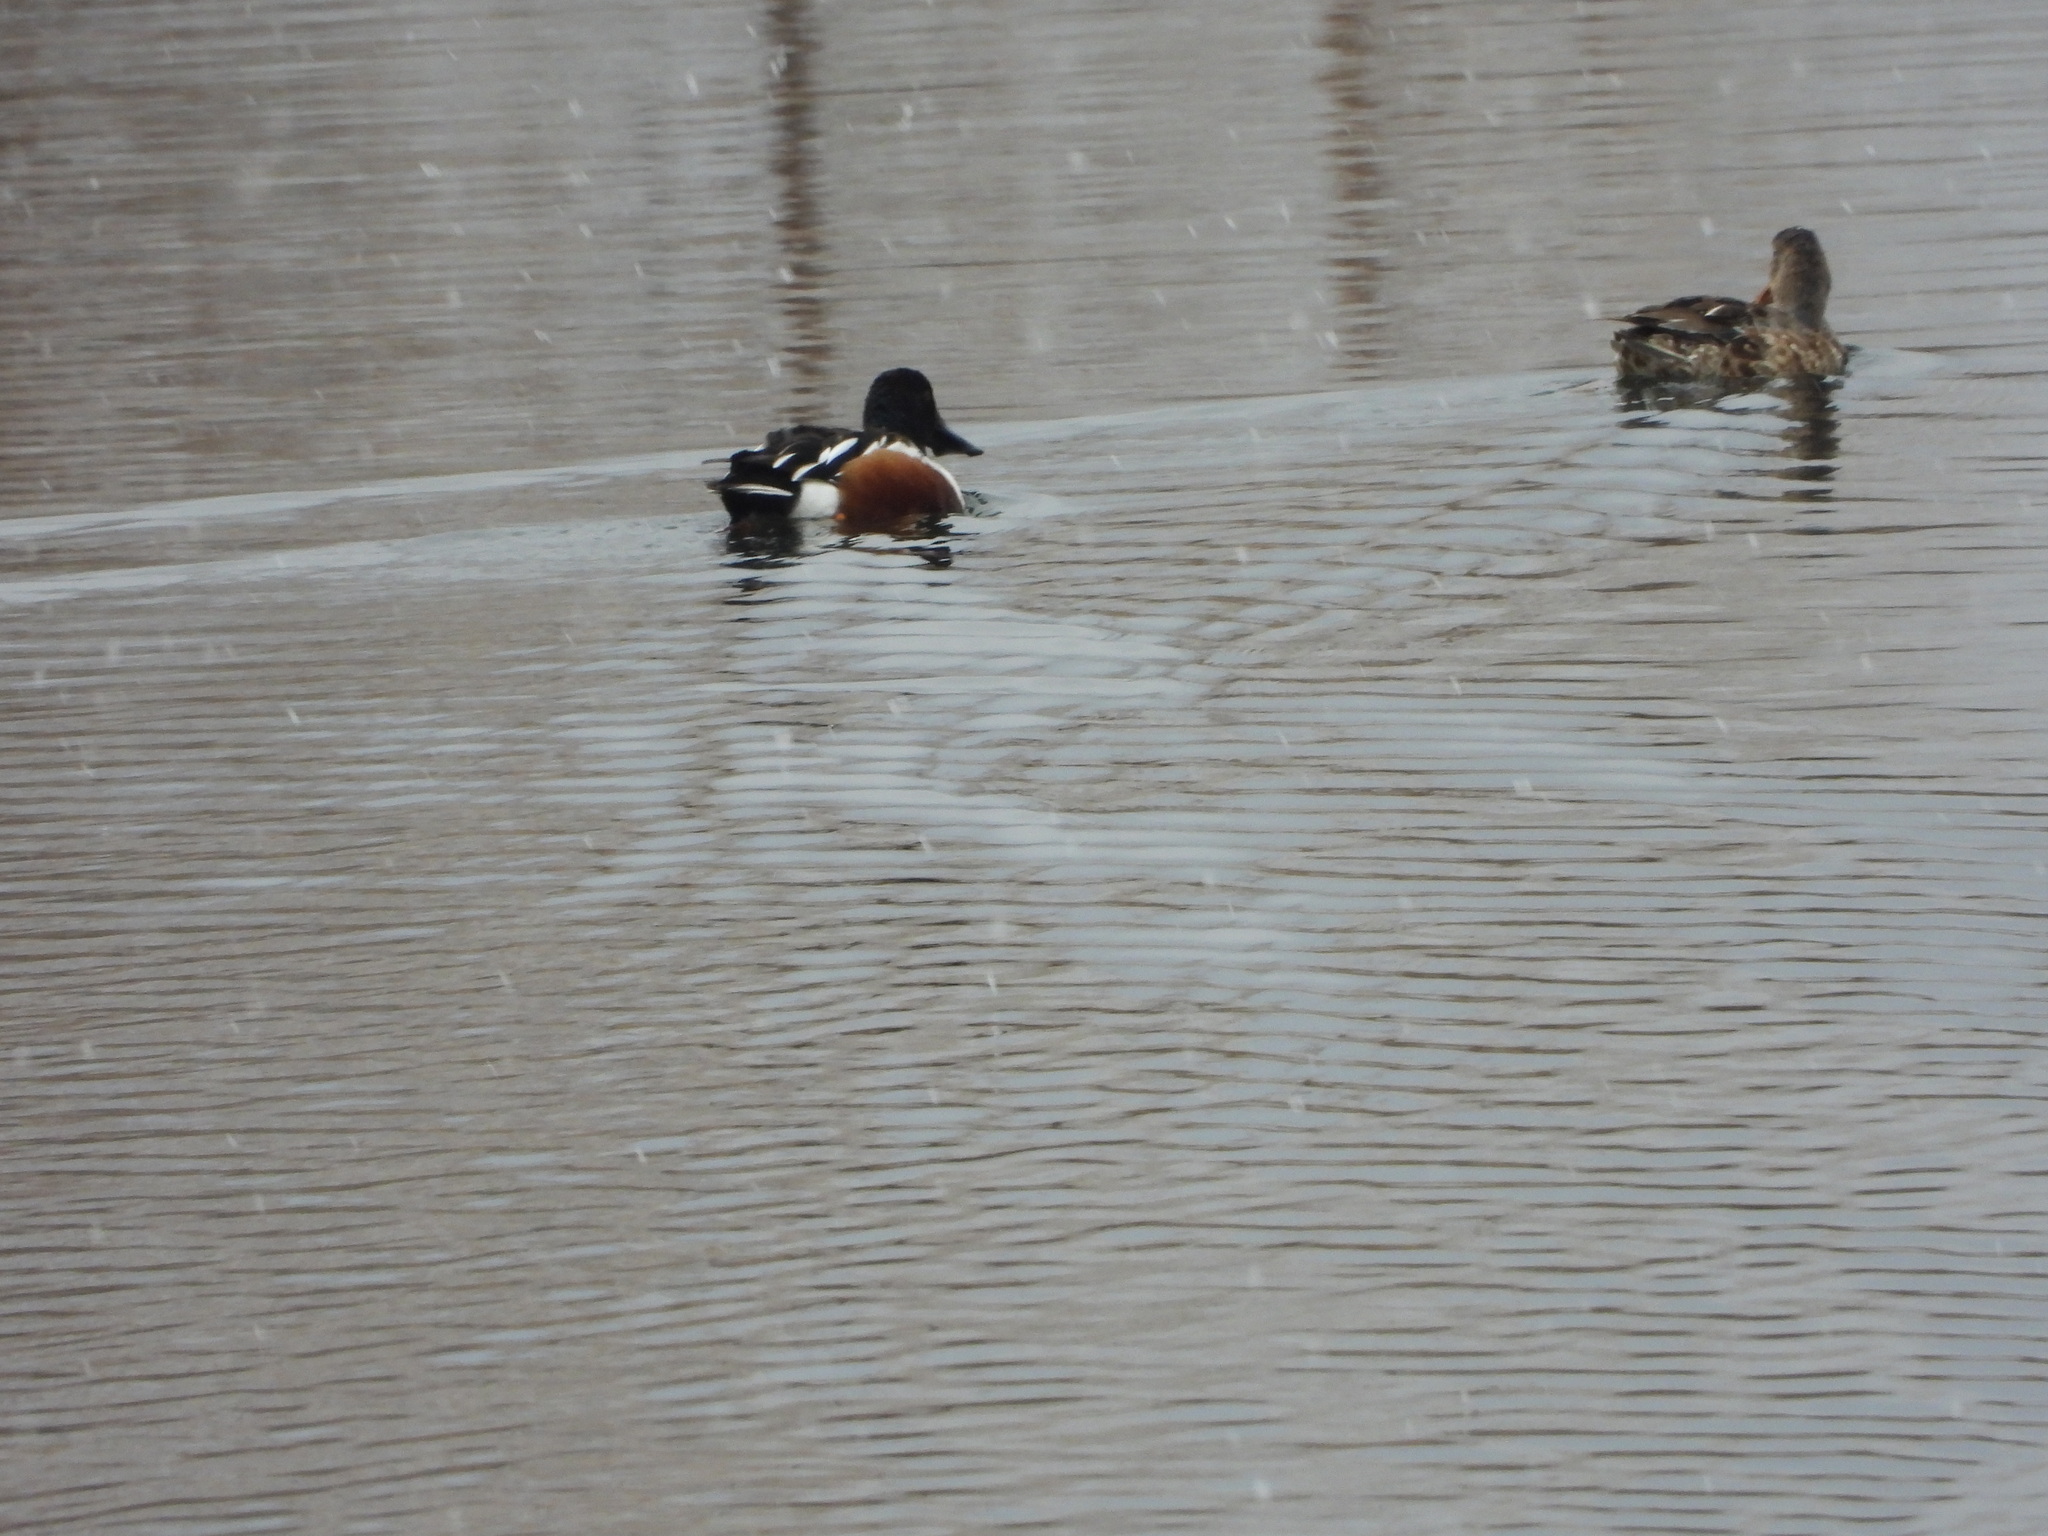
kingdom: Animalia
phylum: Chordata
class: Aves
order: Anseriformes
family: Anatidae
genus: Spatula
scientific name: Spatula clypeata
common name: Northern shoveler
